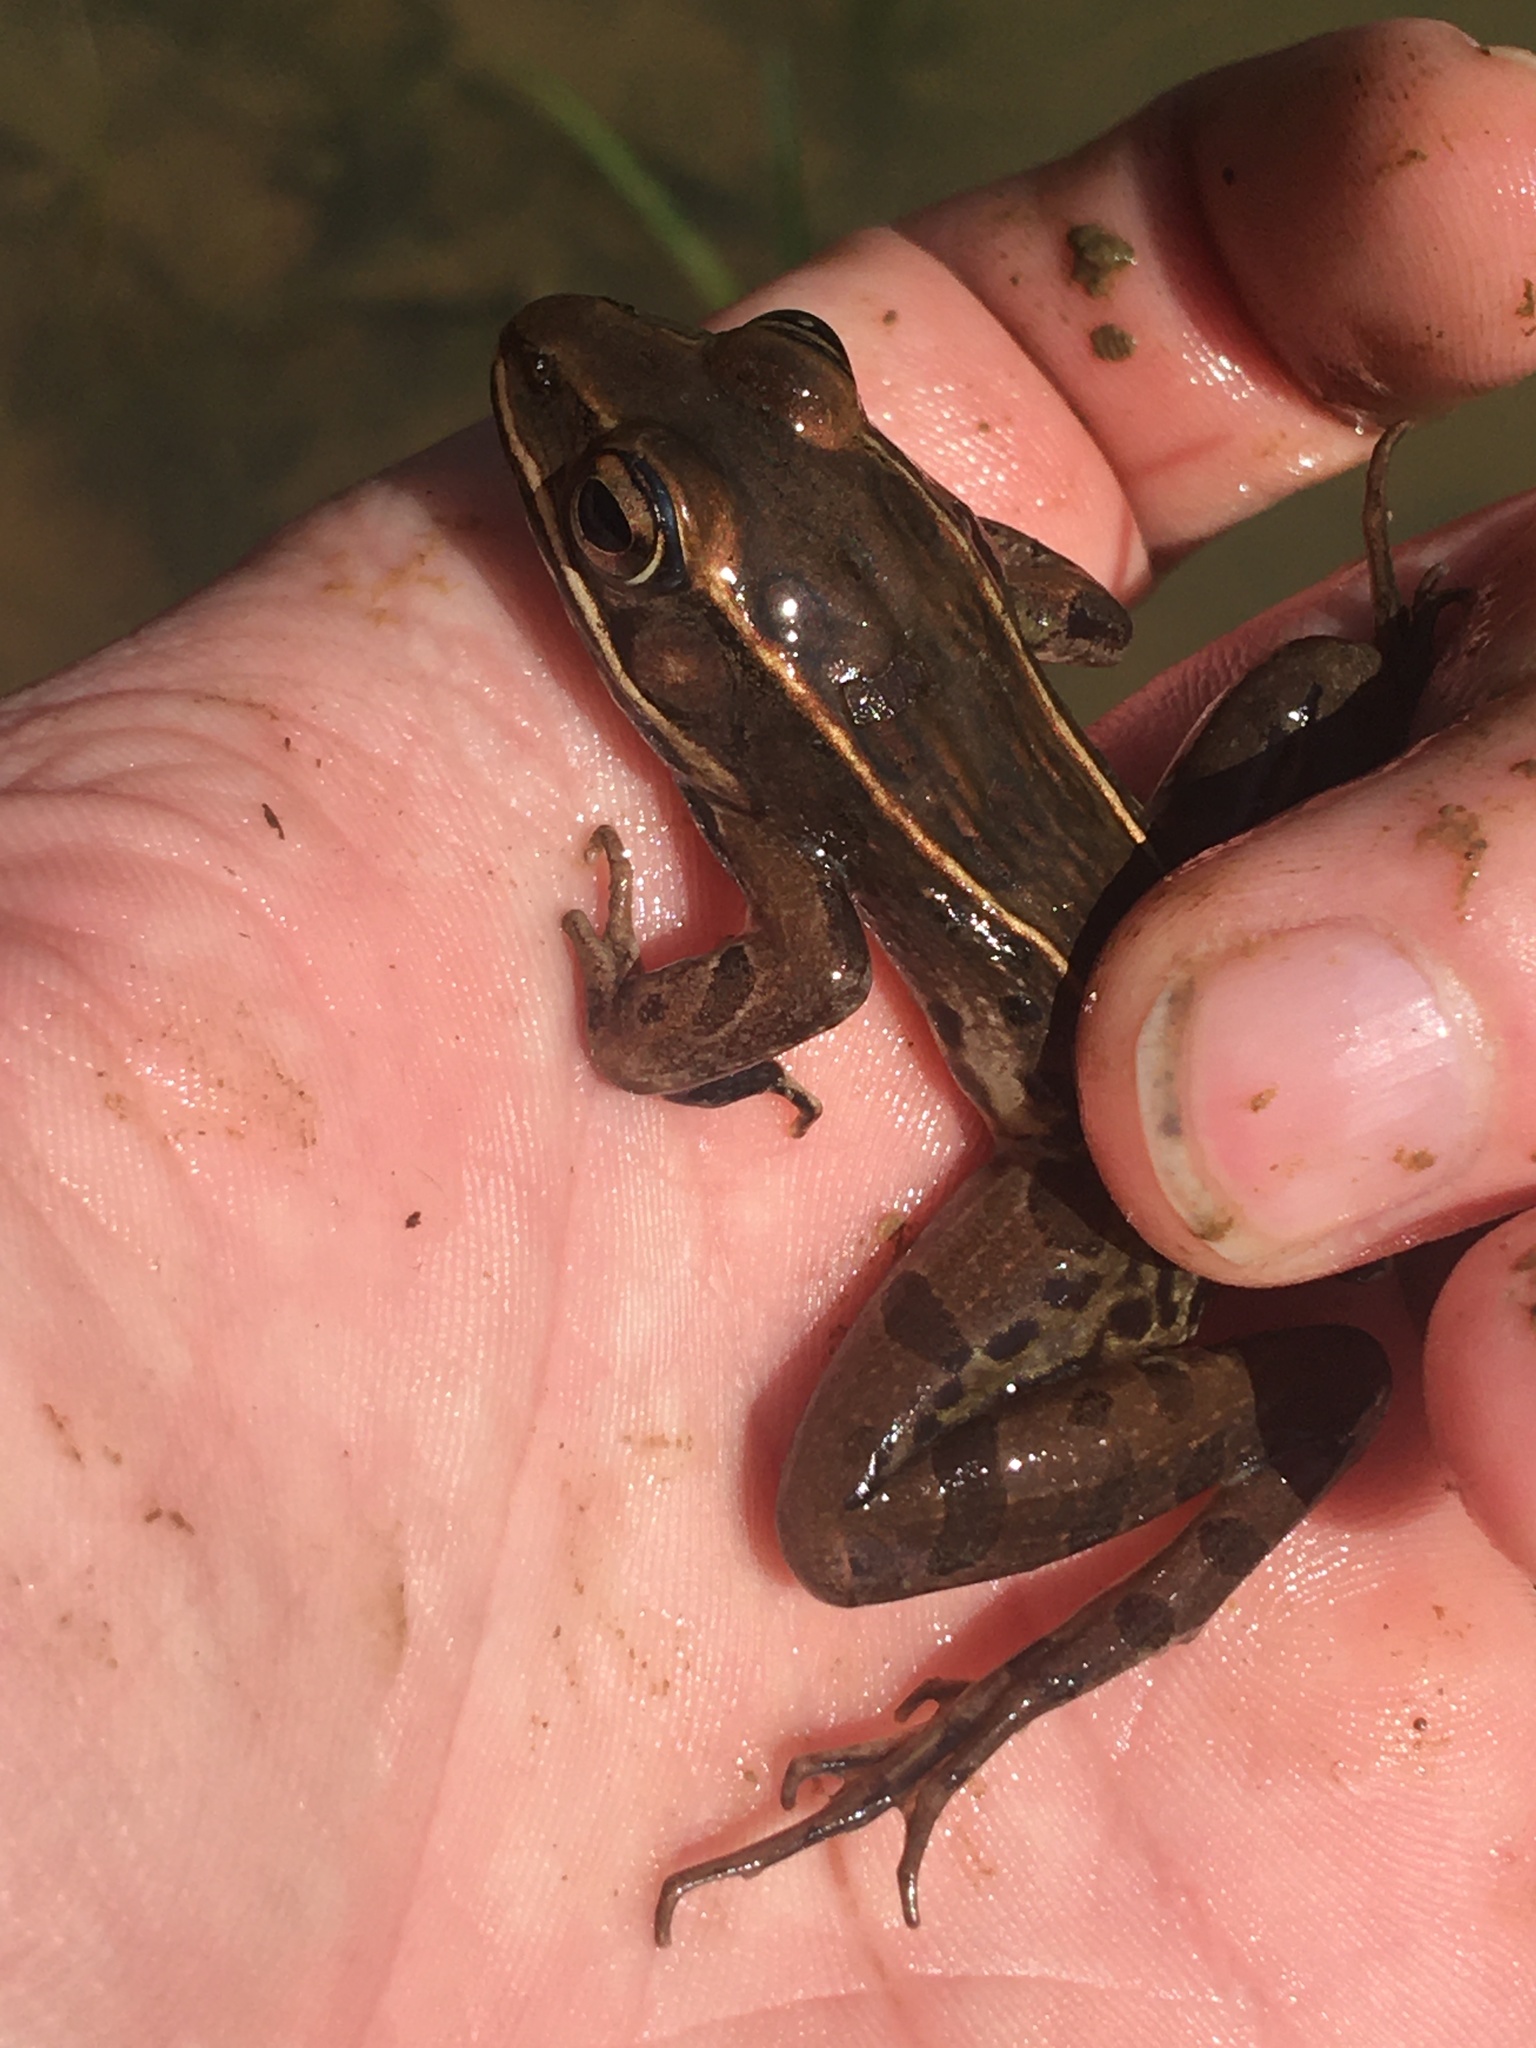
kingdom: Animalia
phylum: Chordata
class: Amphibia
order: Anura
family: Ranidae
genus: Lithobates
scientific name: Lithobates sphenocephalus
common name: Southern leopard frog
